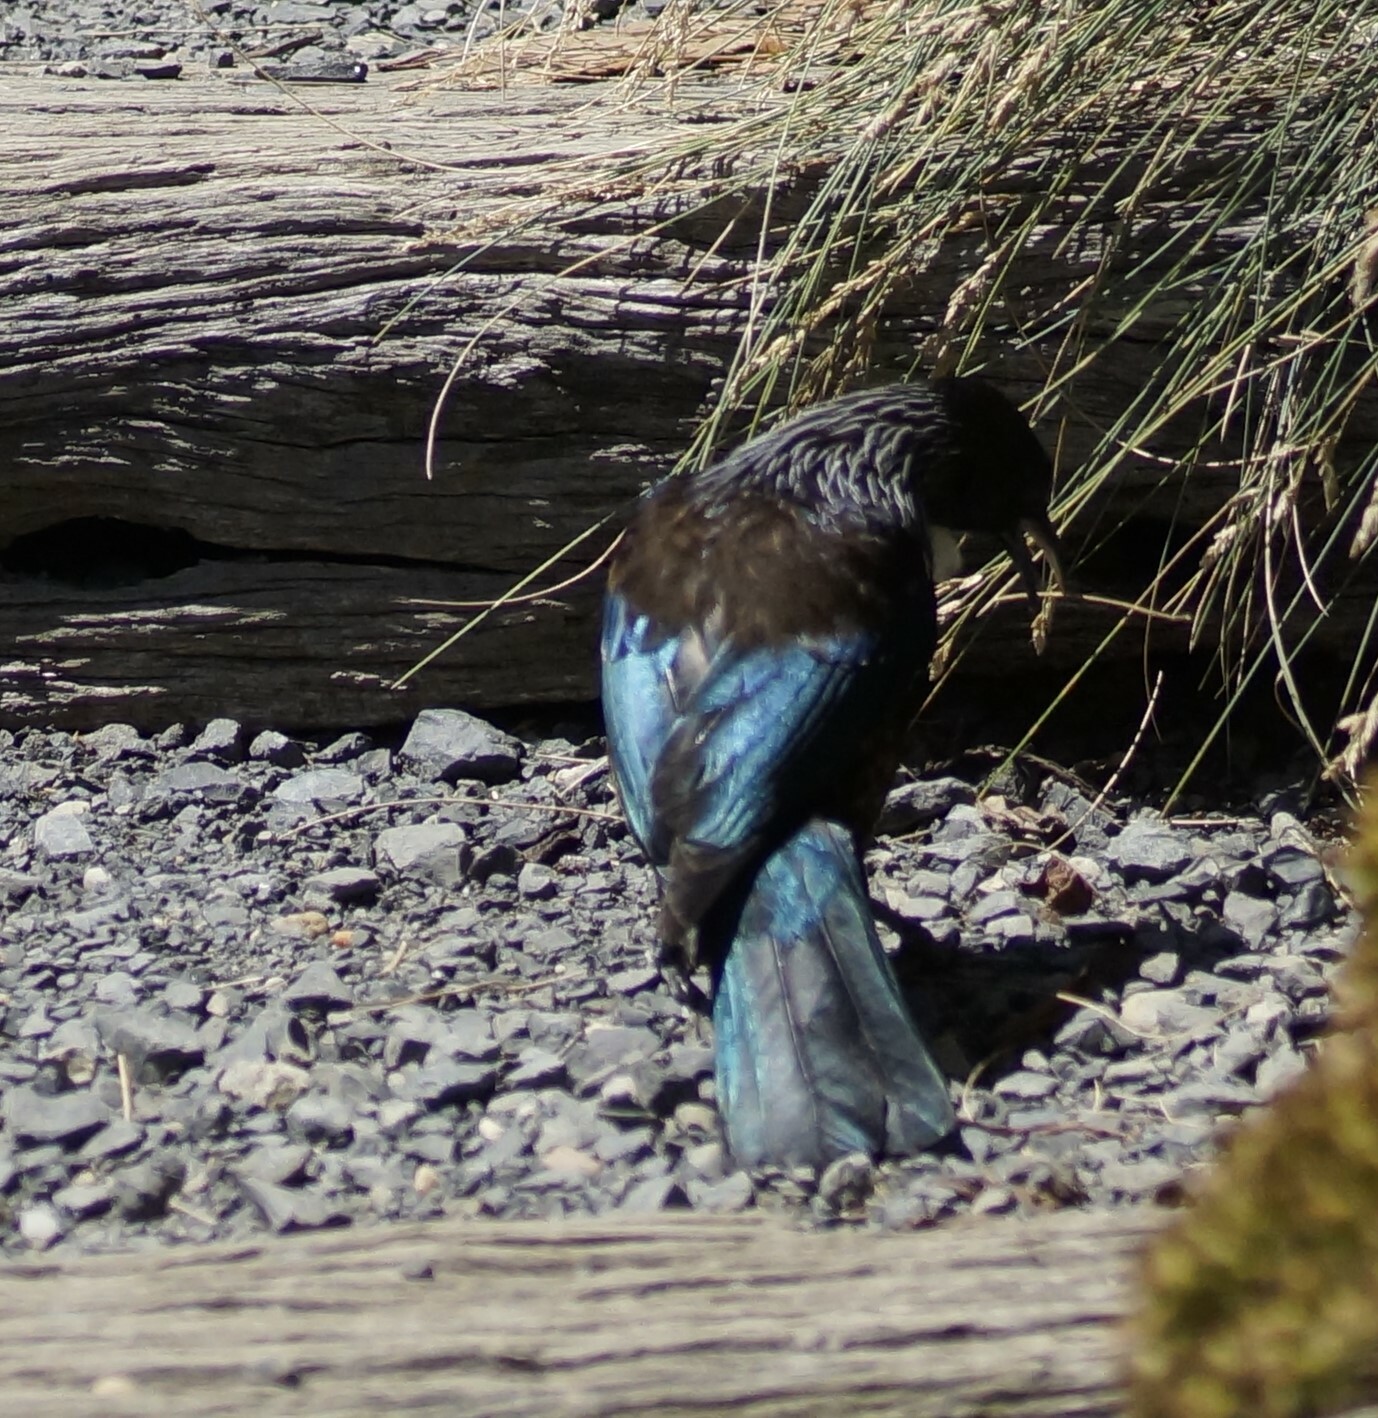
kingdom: Animalia
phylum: Chordata
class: Aves
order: Passeriformes
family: Meliphagidae
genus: Prosthemadera
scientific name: Prosthemadera novaeseelandiae
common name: Tui
